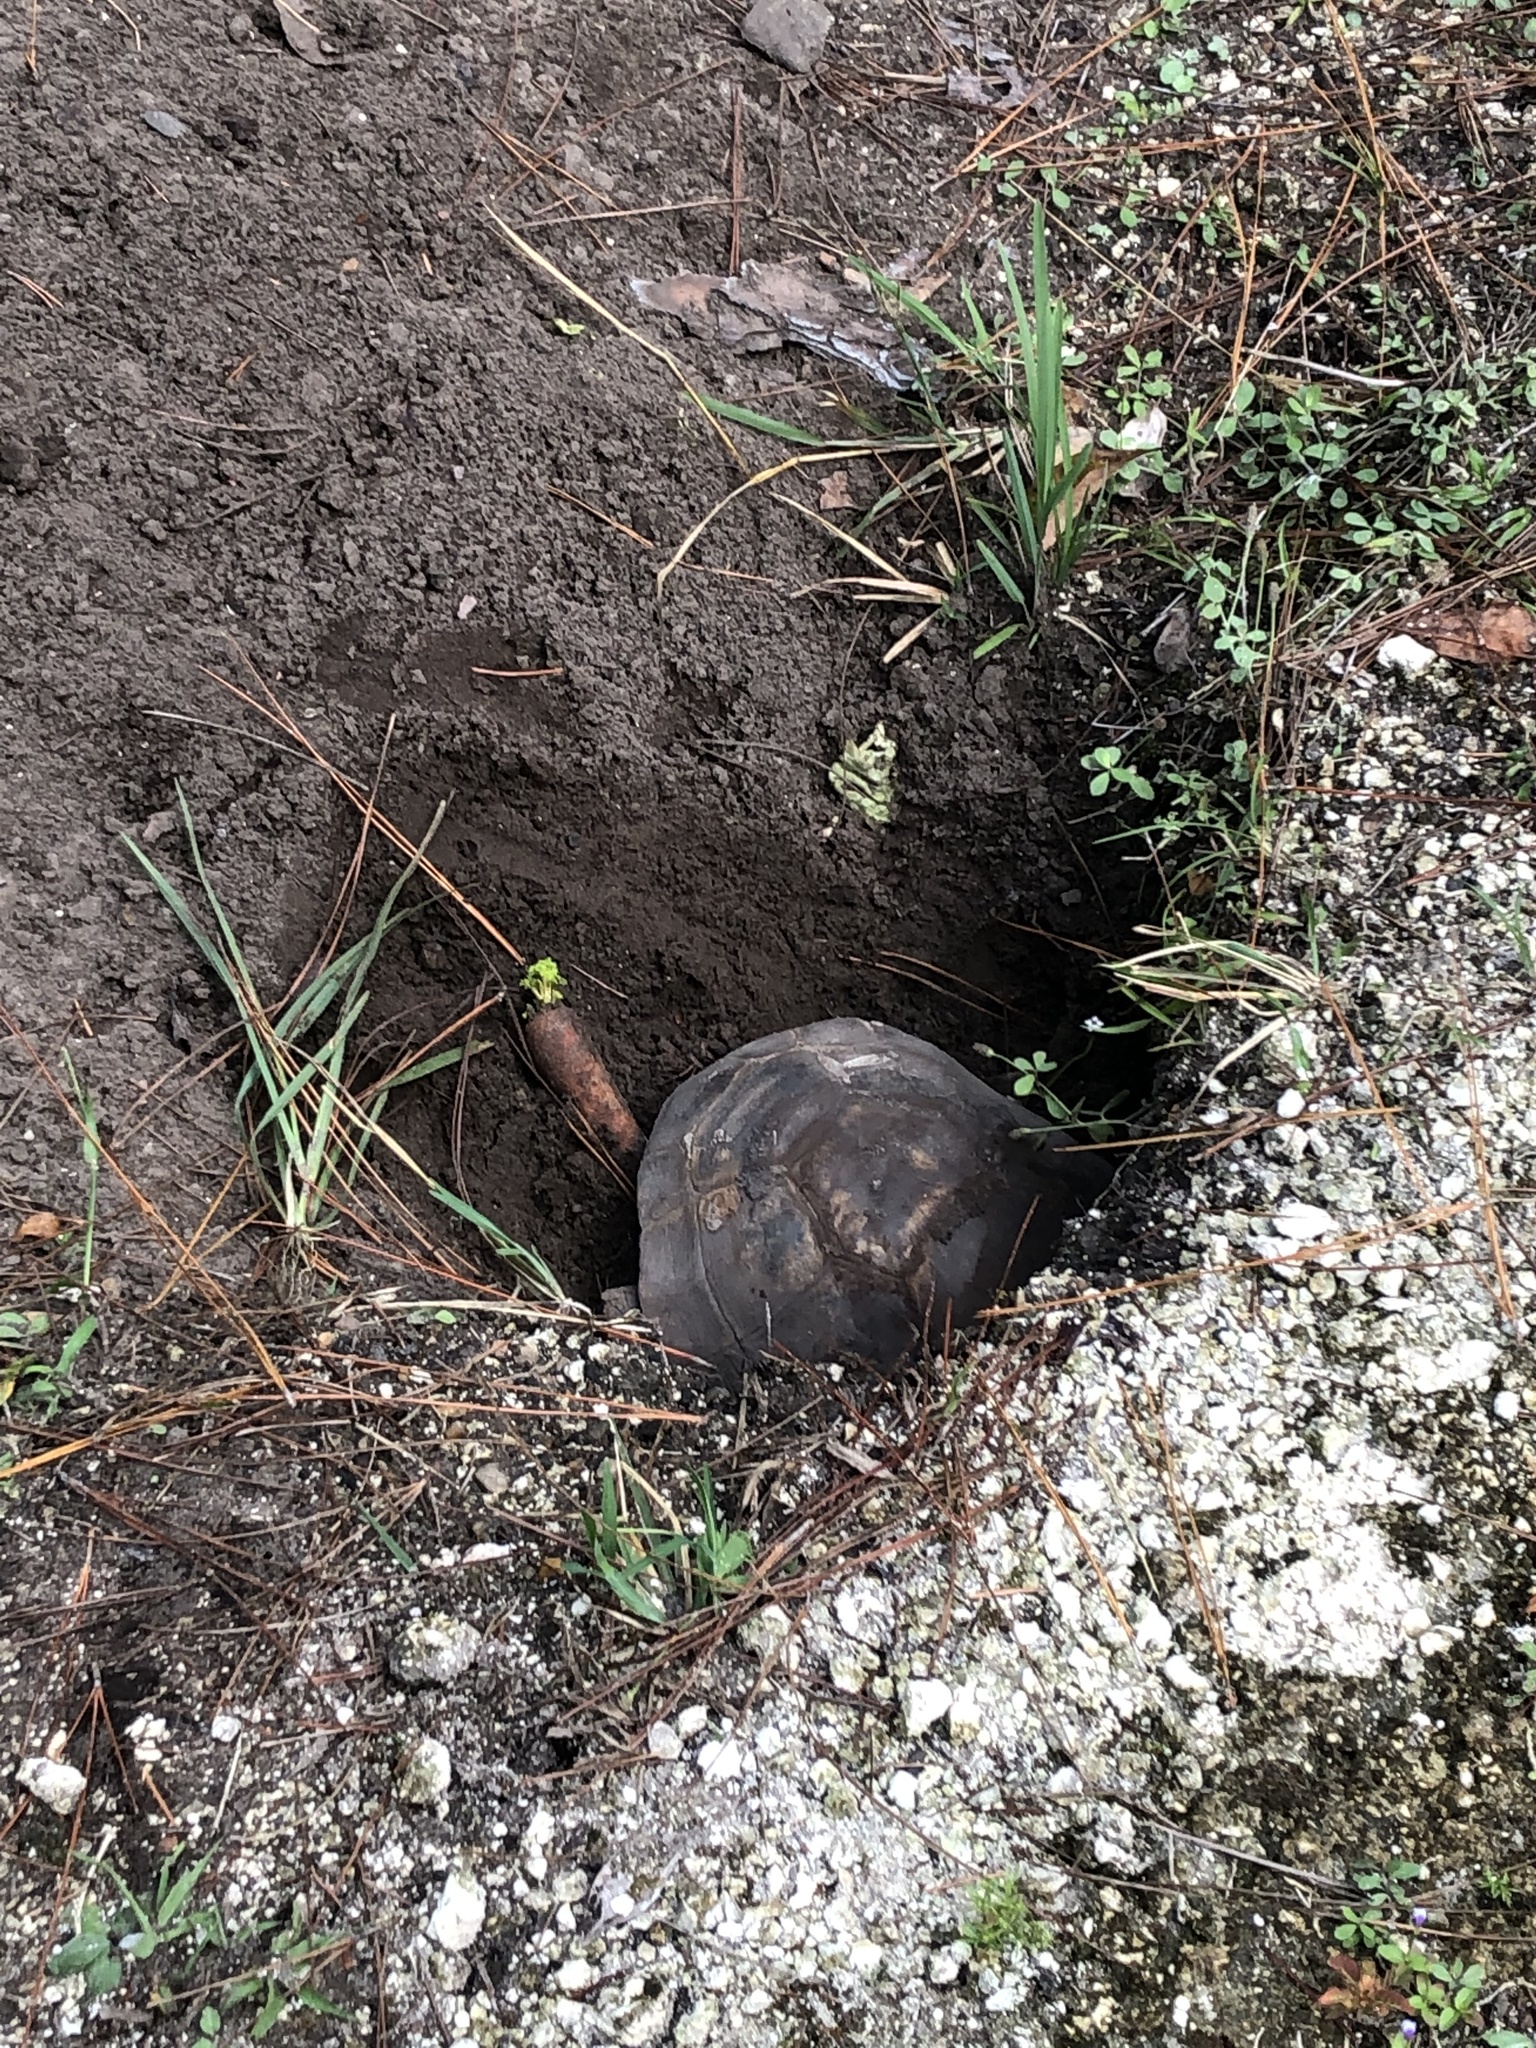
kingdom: Animalia
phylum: Chordata
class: Testudines
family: Testudinidae
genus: Gopherus
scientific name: Gopherus polyphemus
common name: Florida gopher tortoise
